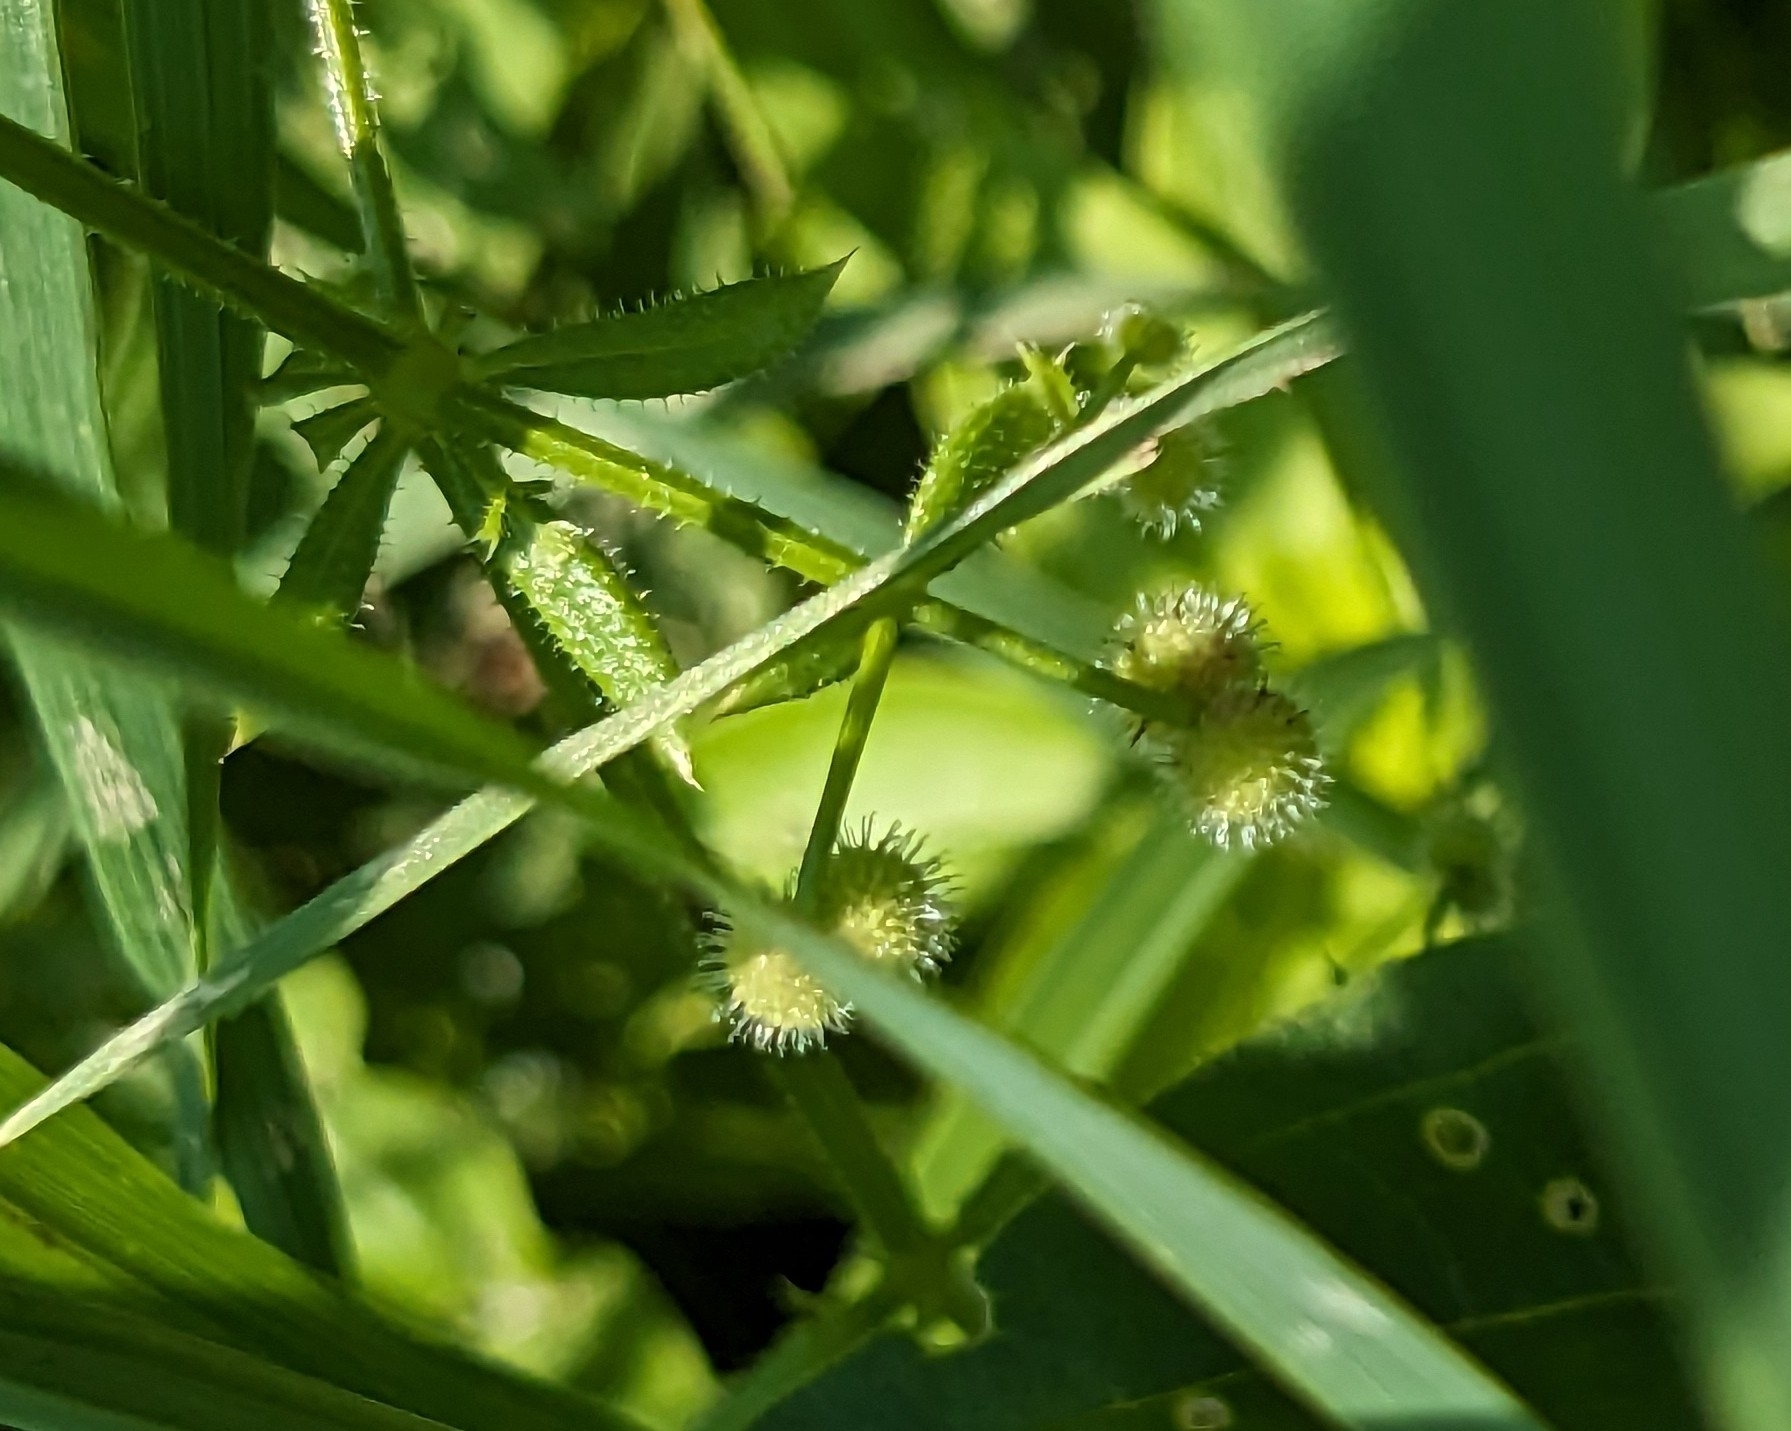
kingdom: Plantae
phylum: Tracheophyta
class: Magnoliopsida
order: Gentianales
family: Rubiaceae
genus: Galium
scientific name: Galium aparine
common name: Cleavers
